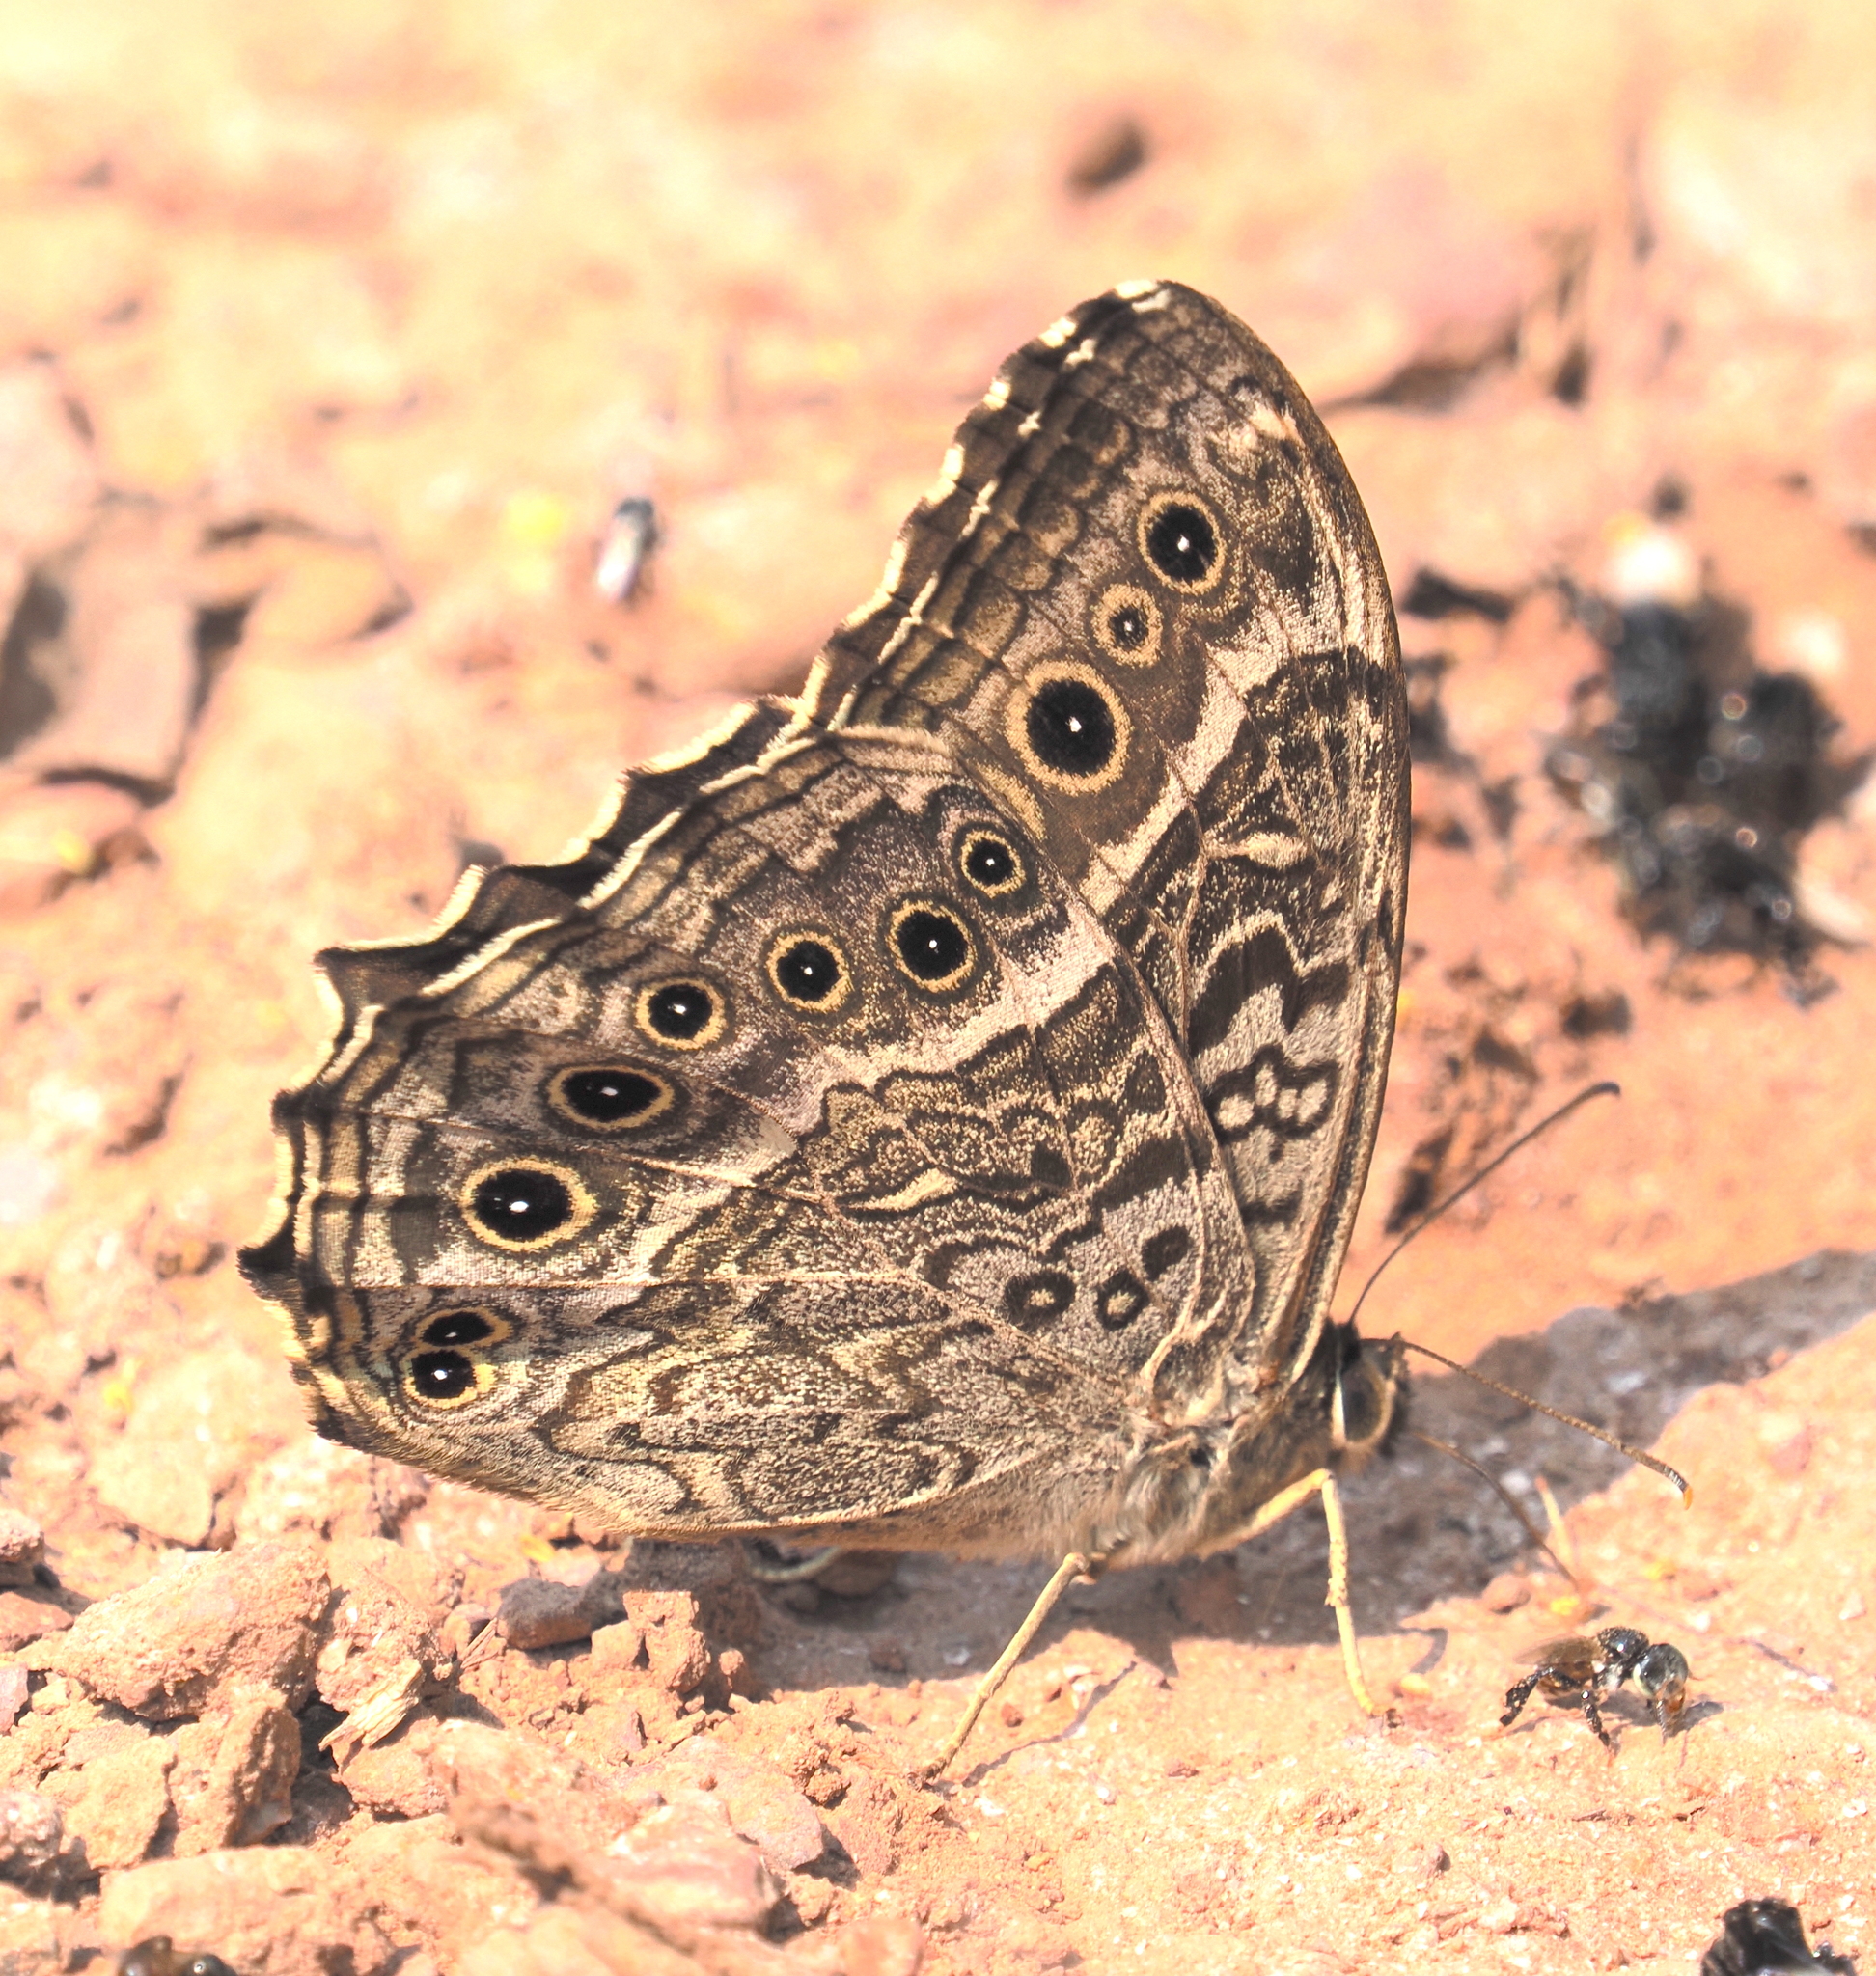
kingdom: Animalia
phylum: Arthropoda
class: Insecta
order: Lepidoptera
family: Nymphalidae
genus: Neope
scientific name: Neope muirheadii
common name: Black-spotted labyrinth
